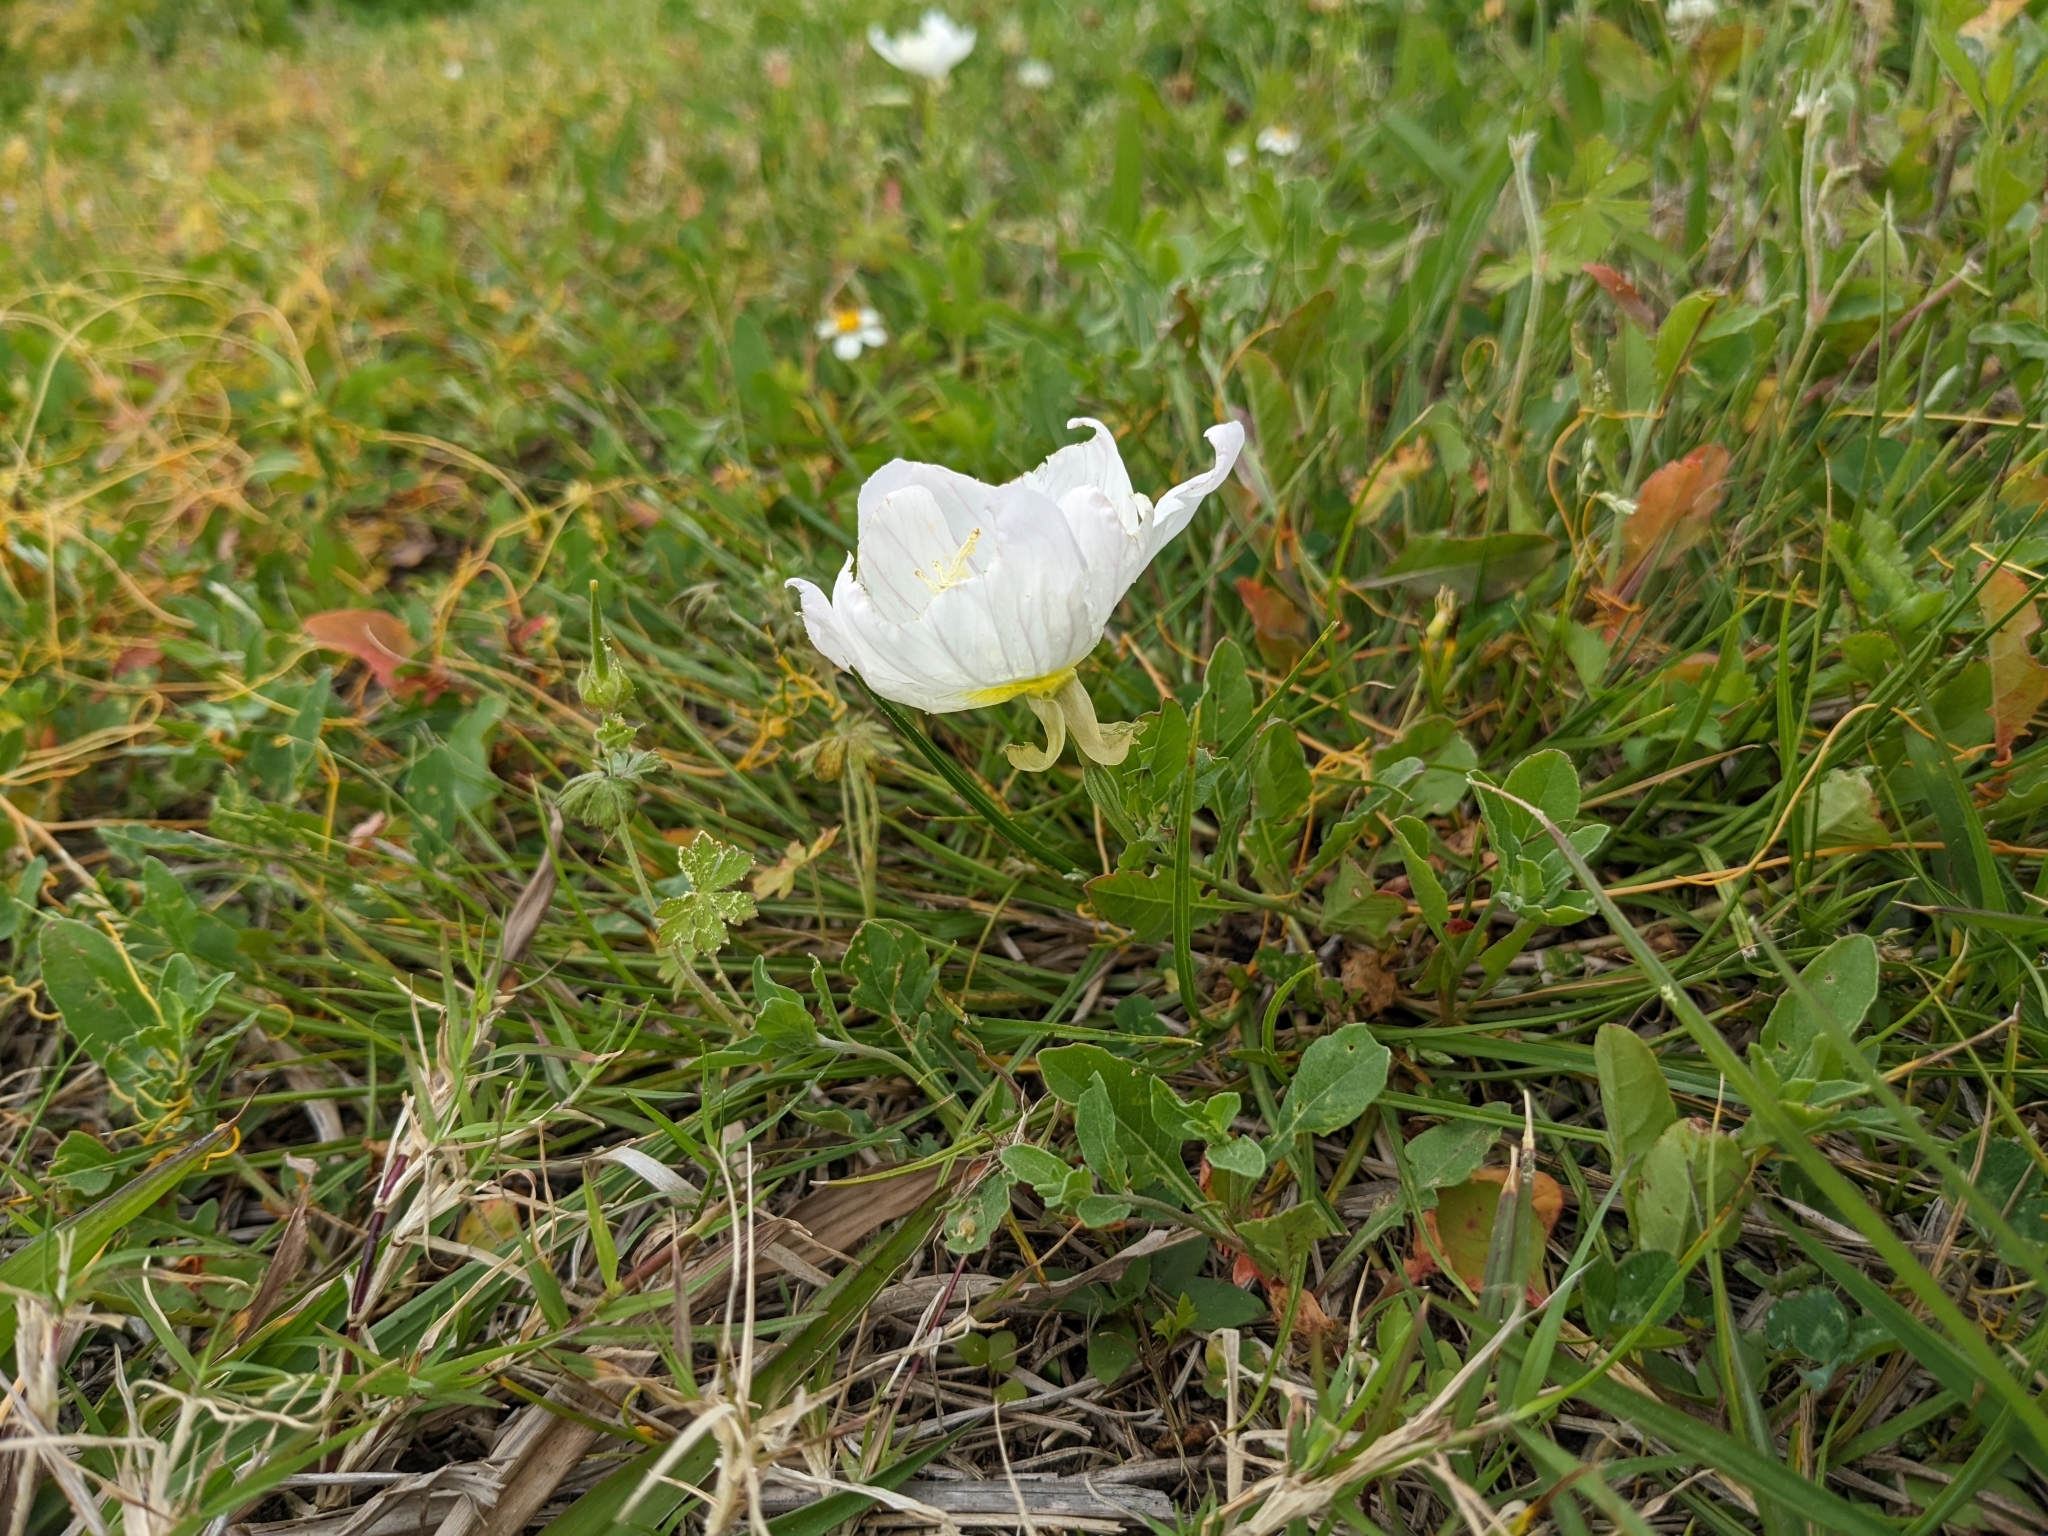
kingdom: Plantae
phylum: Tracheophyta
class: Magnoliopsida
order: Myrtales
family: Onagraceae
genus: Oenothera
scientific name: Oenothera speciosa
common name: White evening-primrose
